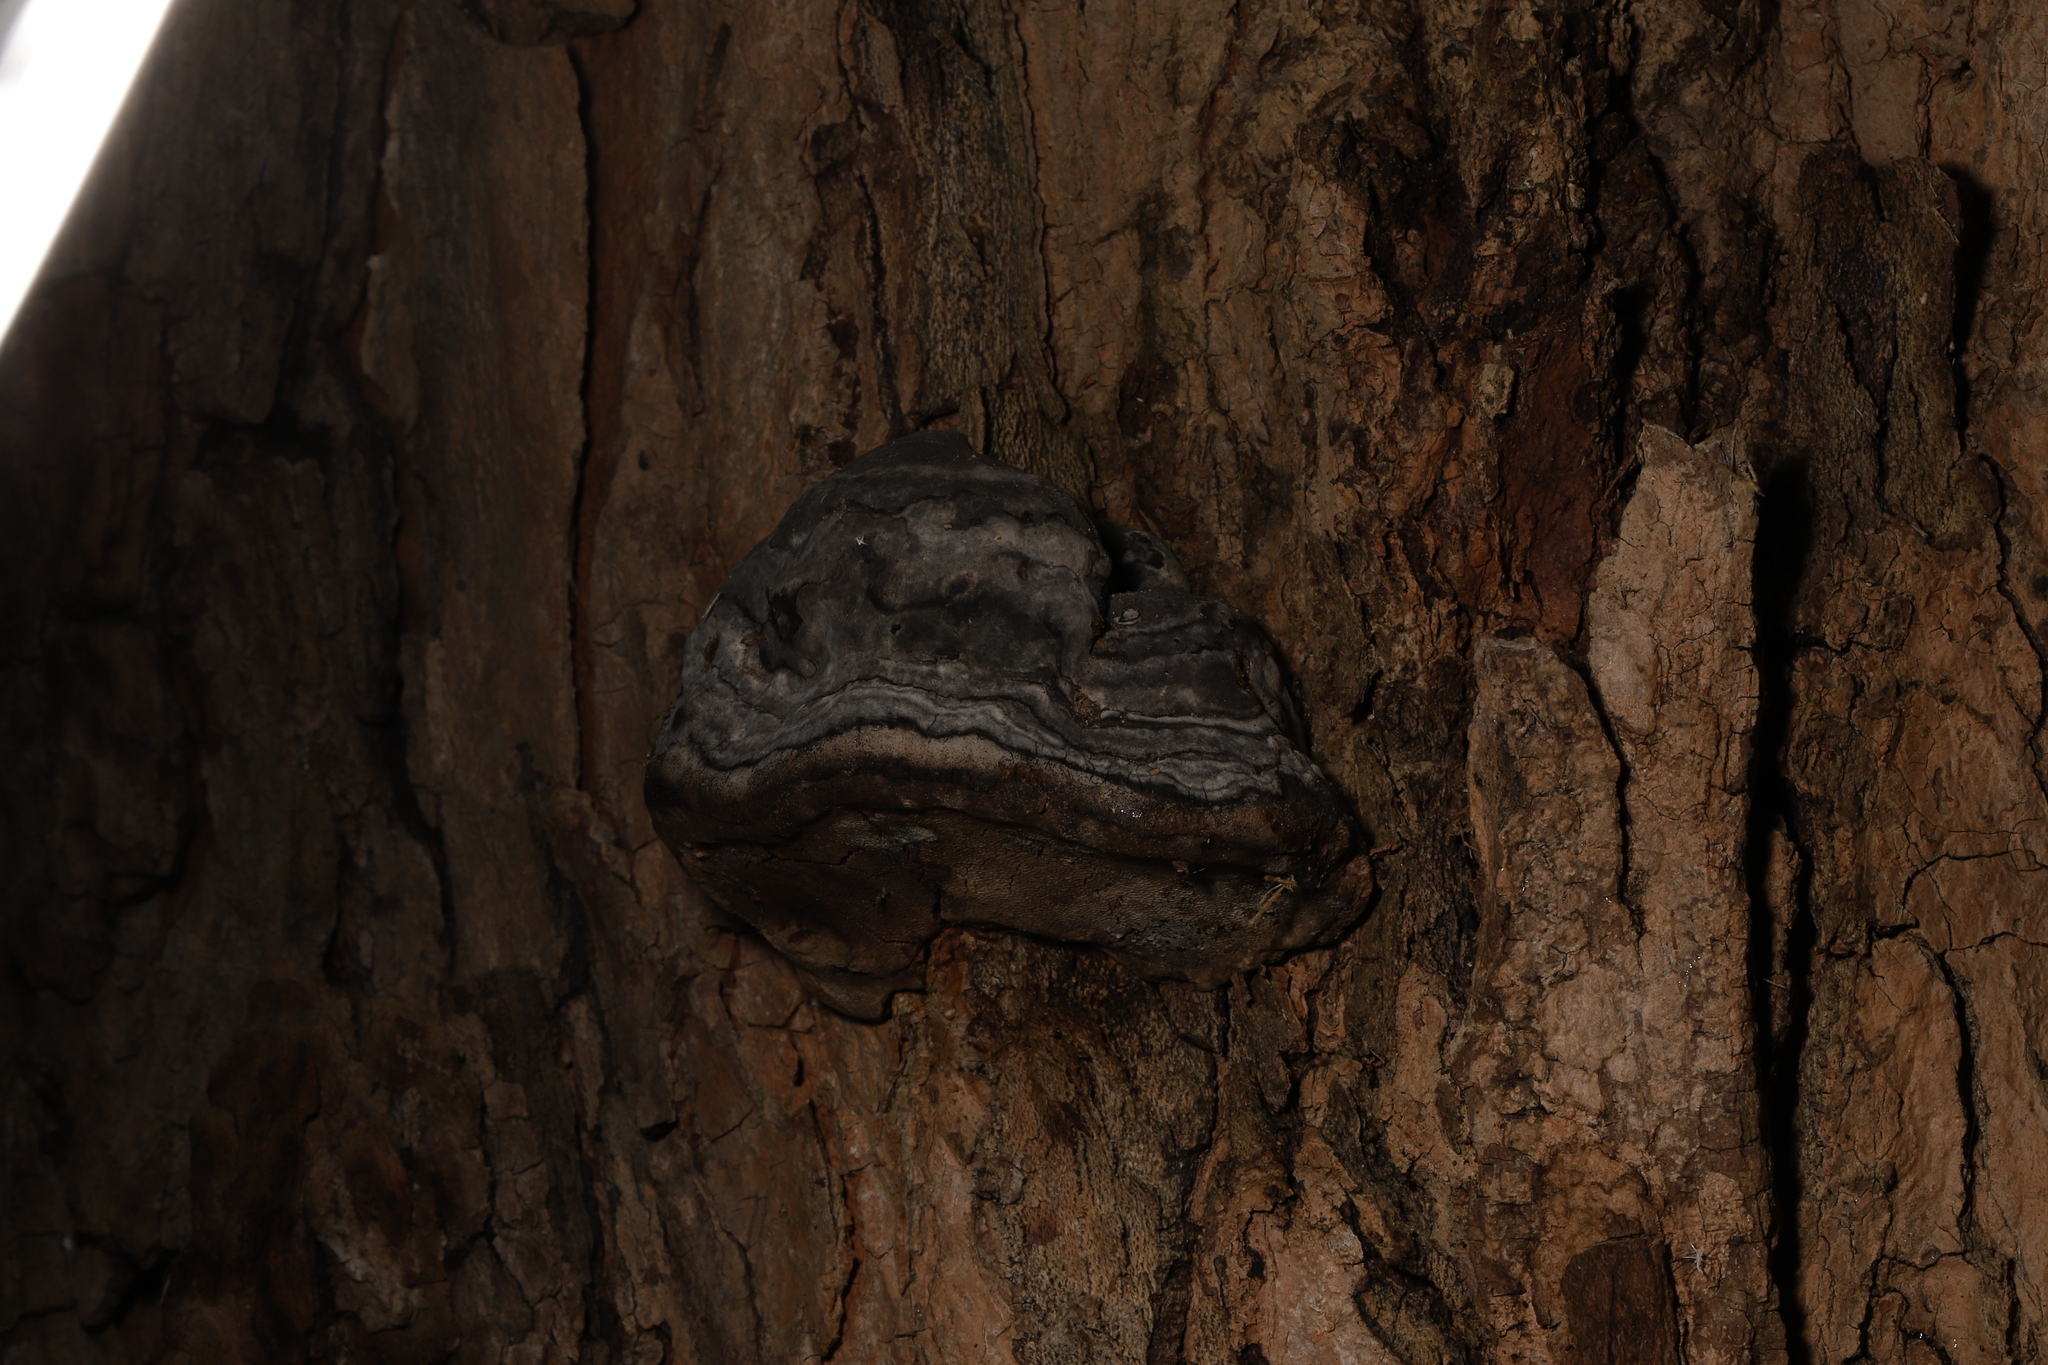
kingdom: Fungi
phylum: Basidiomycota
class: Agaricomycetes
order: Polyporales
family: Polyporaceae
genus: Fomes
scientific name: Fomes fomentarius
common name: Hoof fungus
